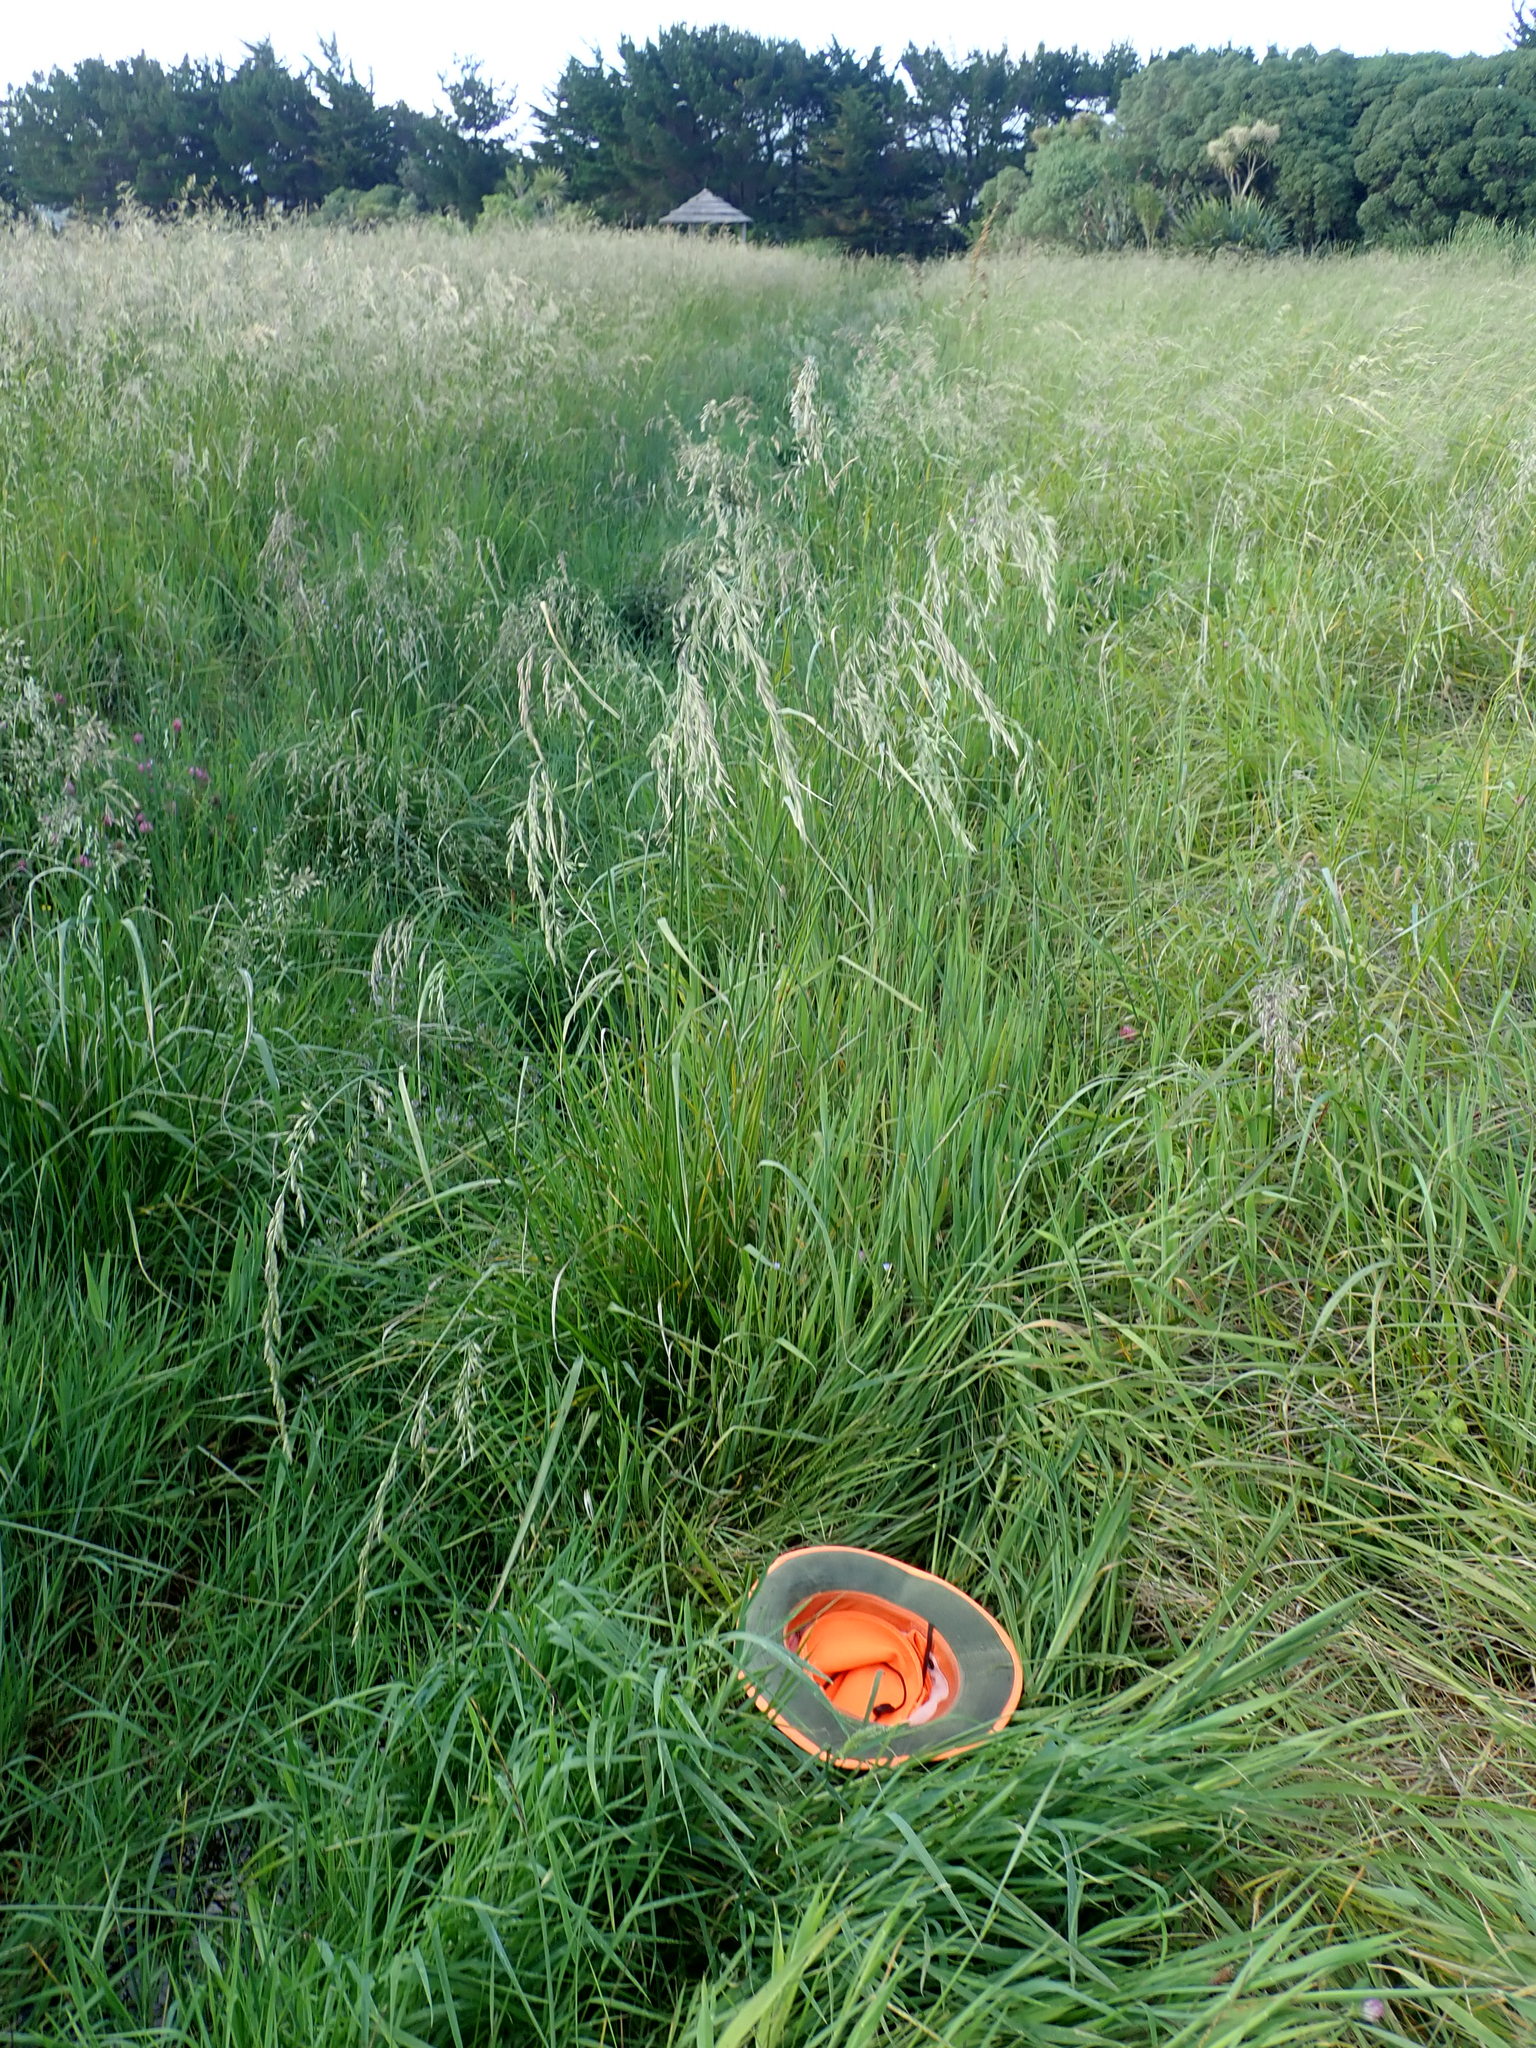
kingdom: Plantae
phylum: Tracheophyta
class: Liliopsida
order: Alismatales
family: Juncaginaceae
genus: Triglochin
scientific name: Triglochin striata
